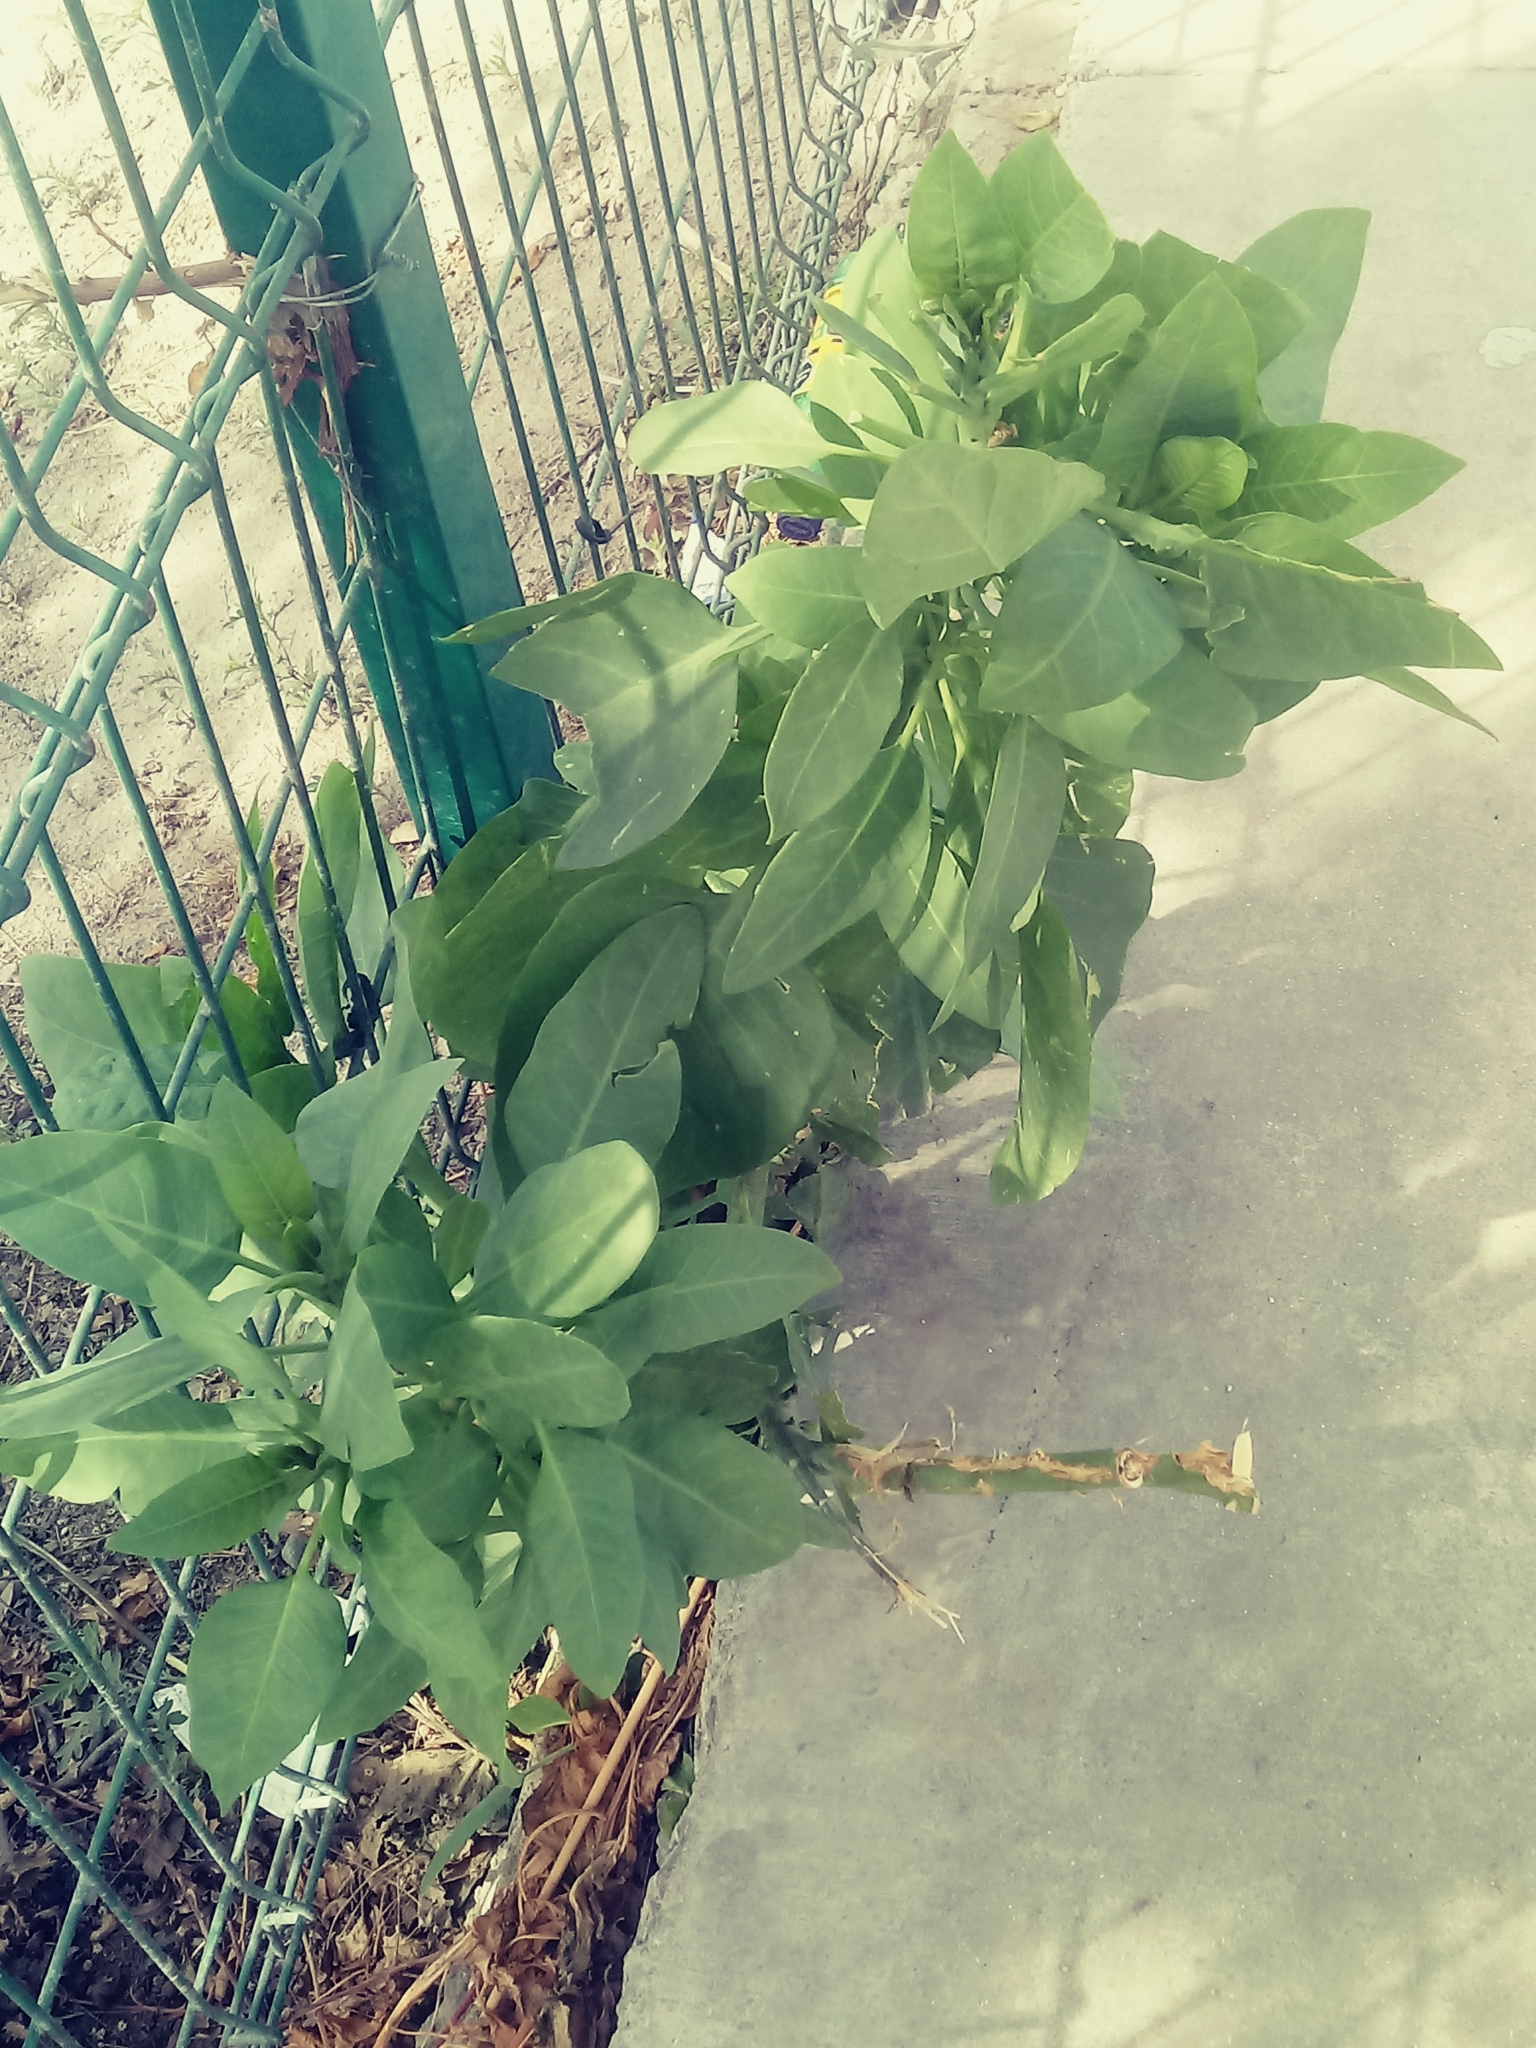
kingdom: Plantae
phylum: Tracheophyta
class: Magnoliopsida
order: Solanales
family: Solanaceae
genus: Nicotiana
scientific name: Nicotiana glauca
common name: Tree tobacco
